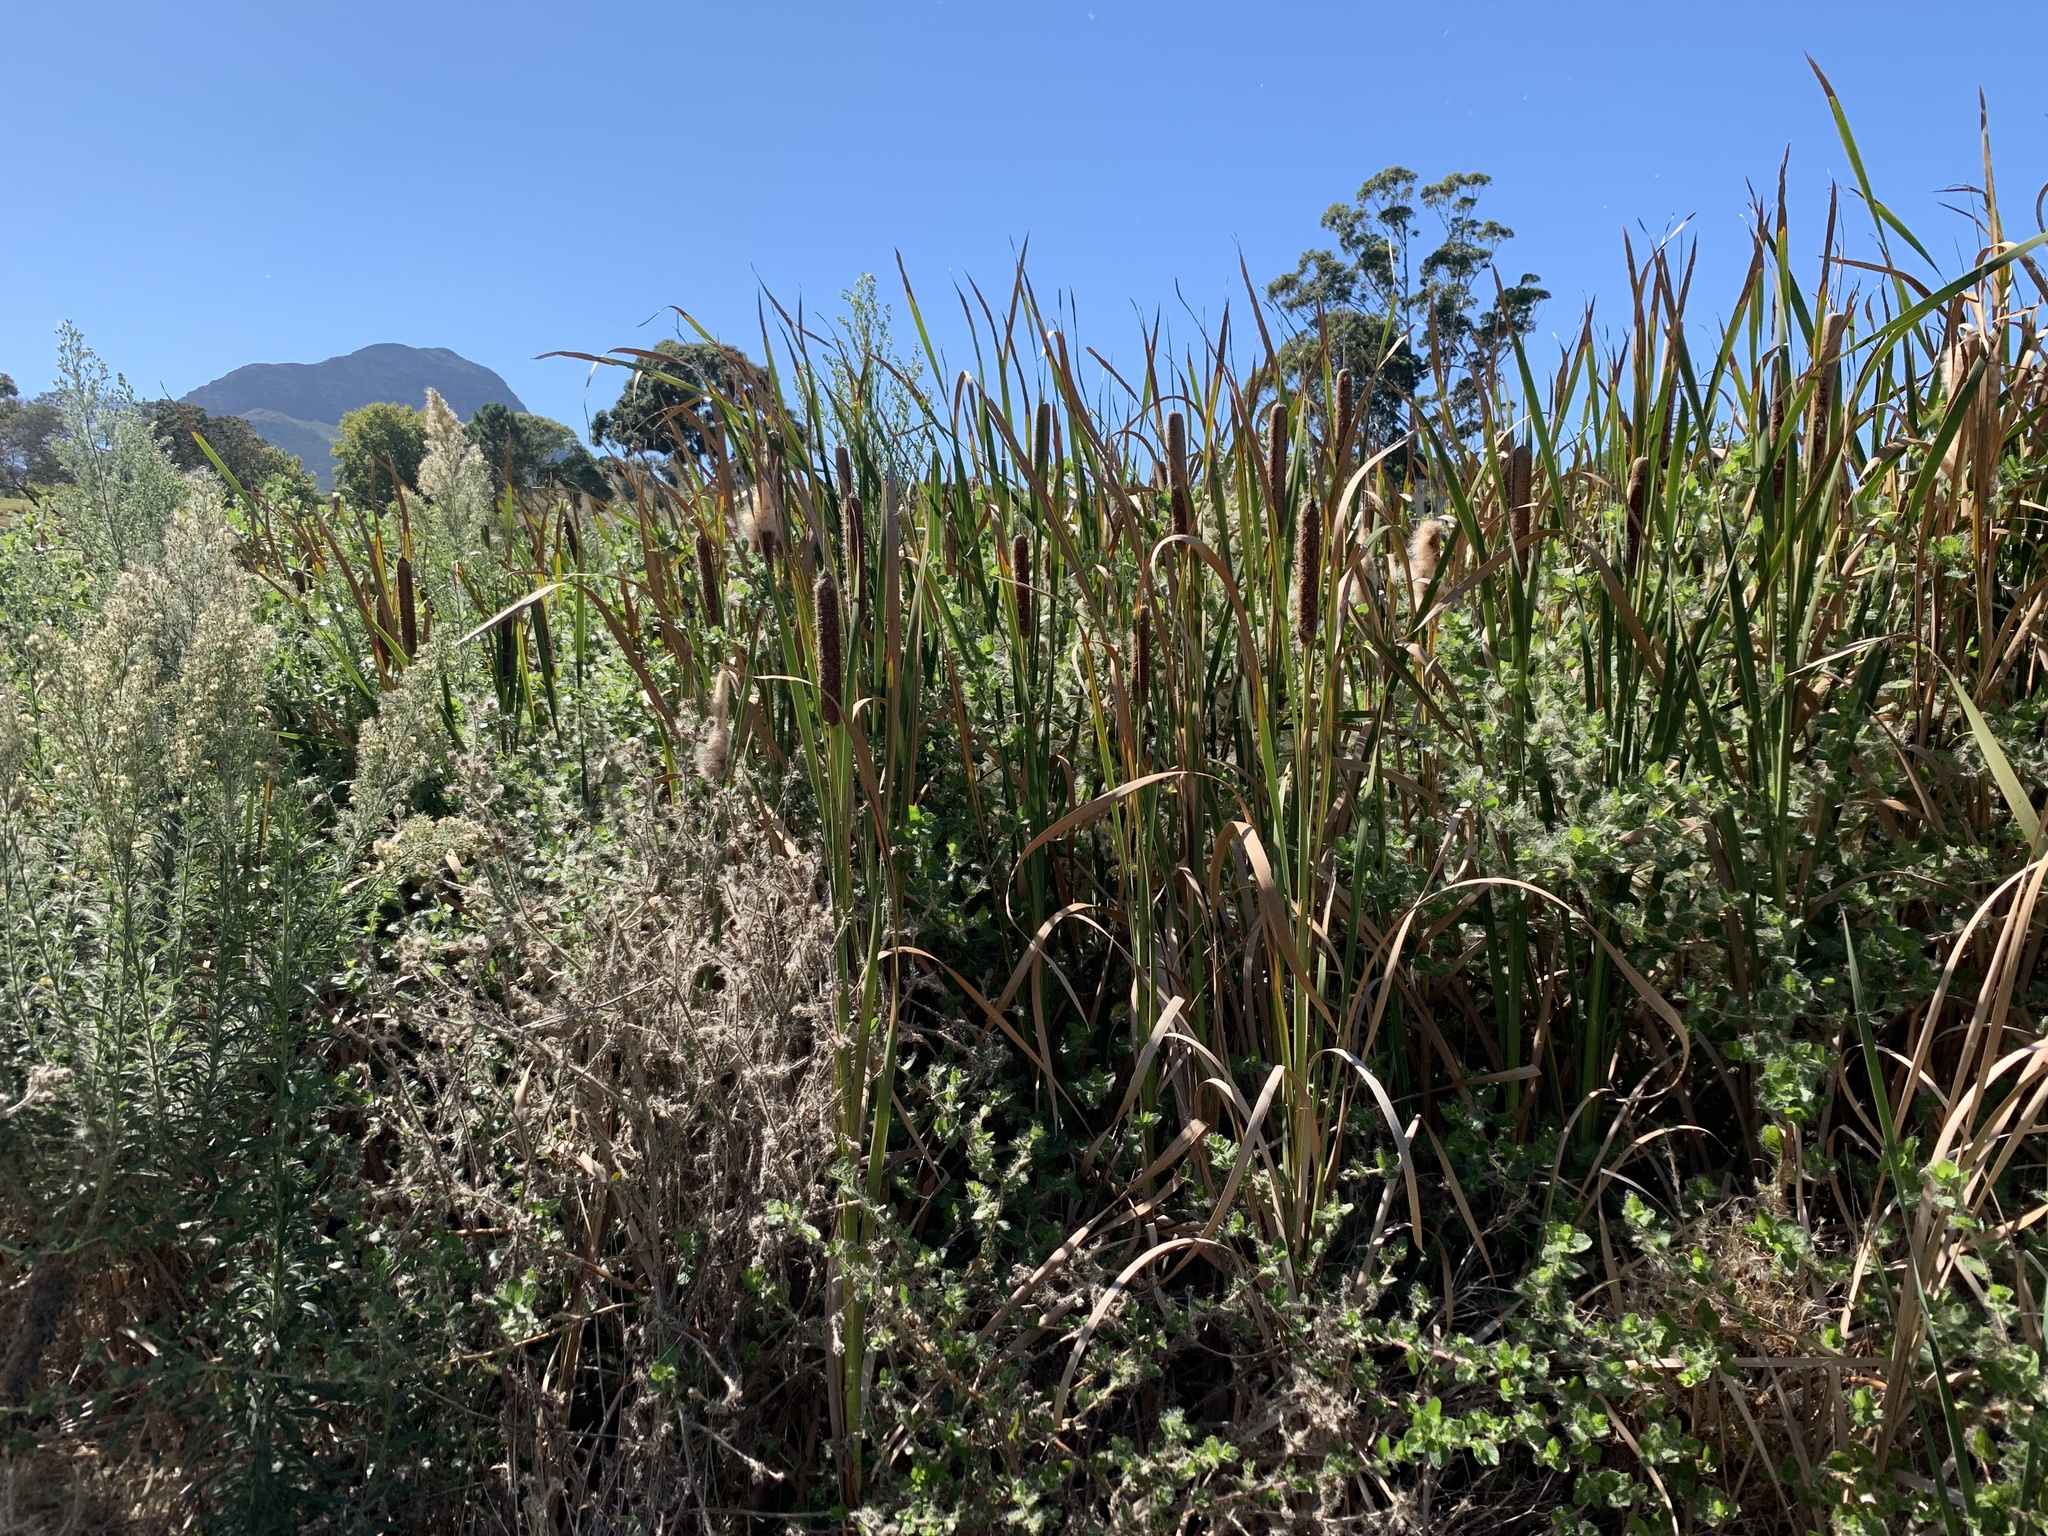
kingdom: Plantae
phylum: Tracheophyta
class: Liliopsida
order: Poales
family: Typhaceae
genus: Typha
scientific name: Typha capensis
